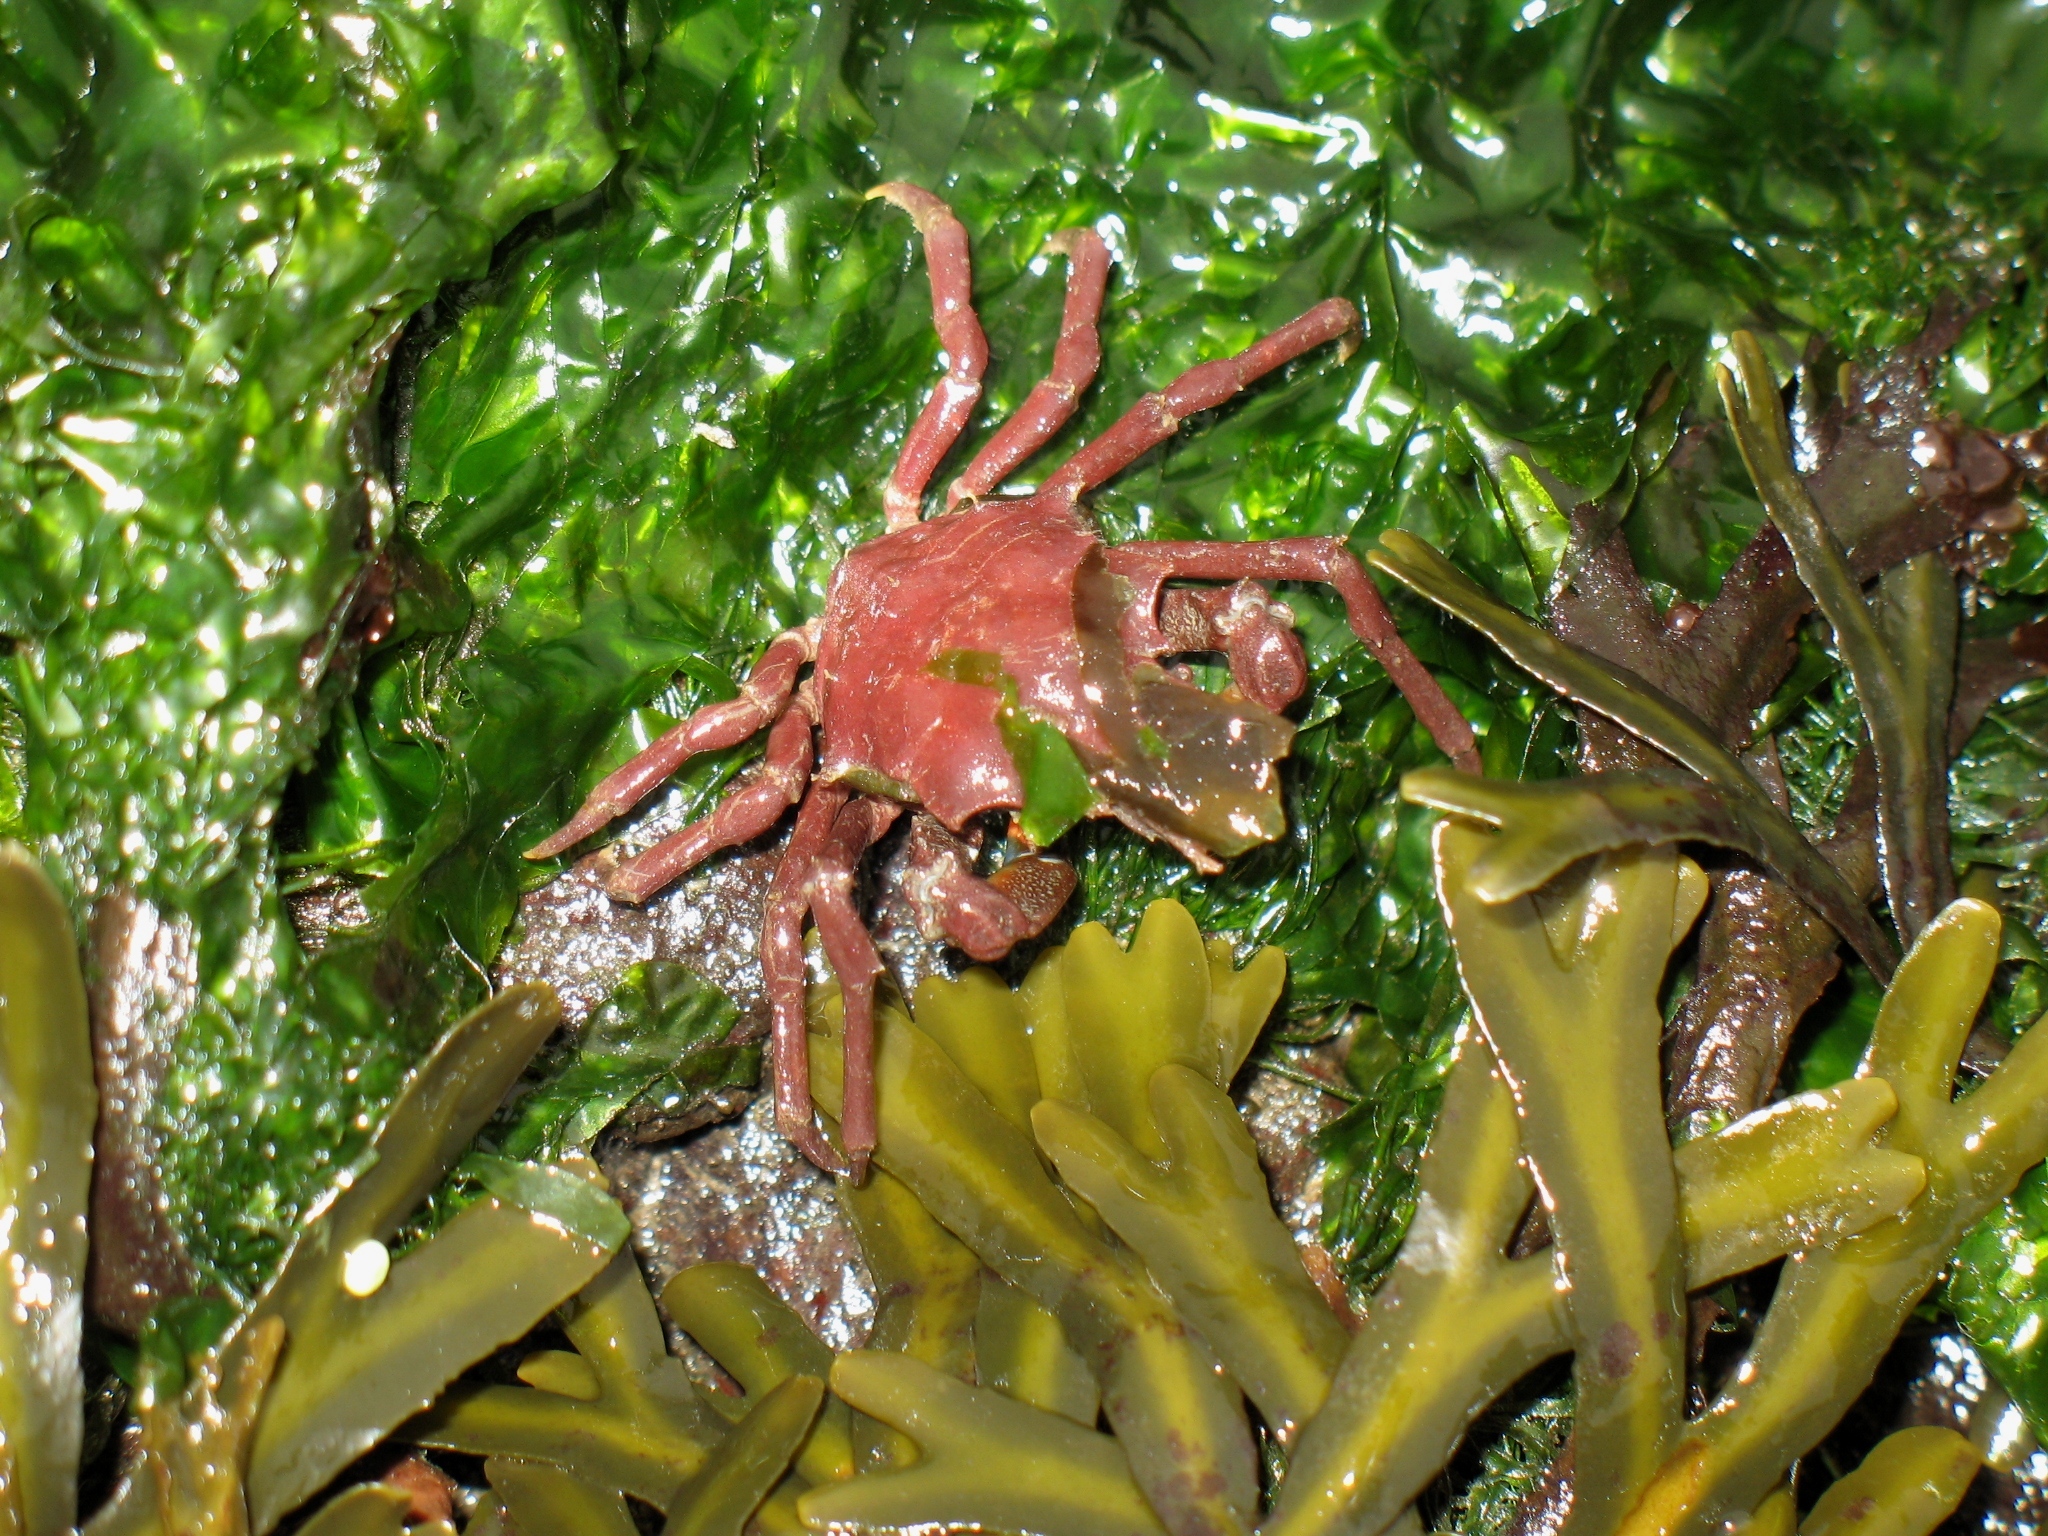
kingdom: Animalia
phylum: Arthropoda
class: Malacostraca
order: Decapoda
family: Epialtidae
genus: Pugettia
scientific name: Pugettia gracilis
